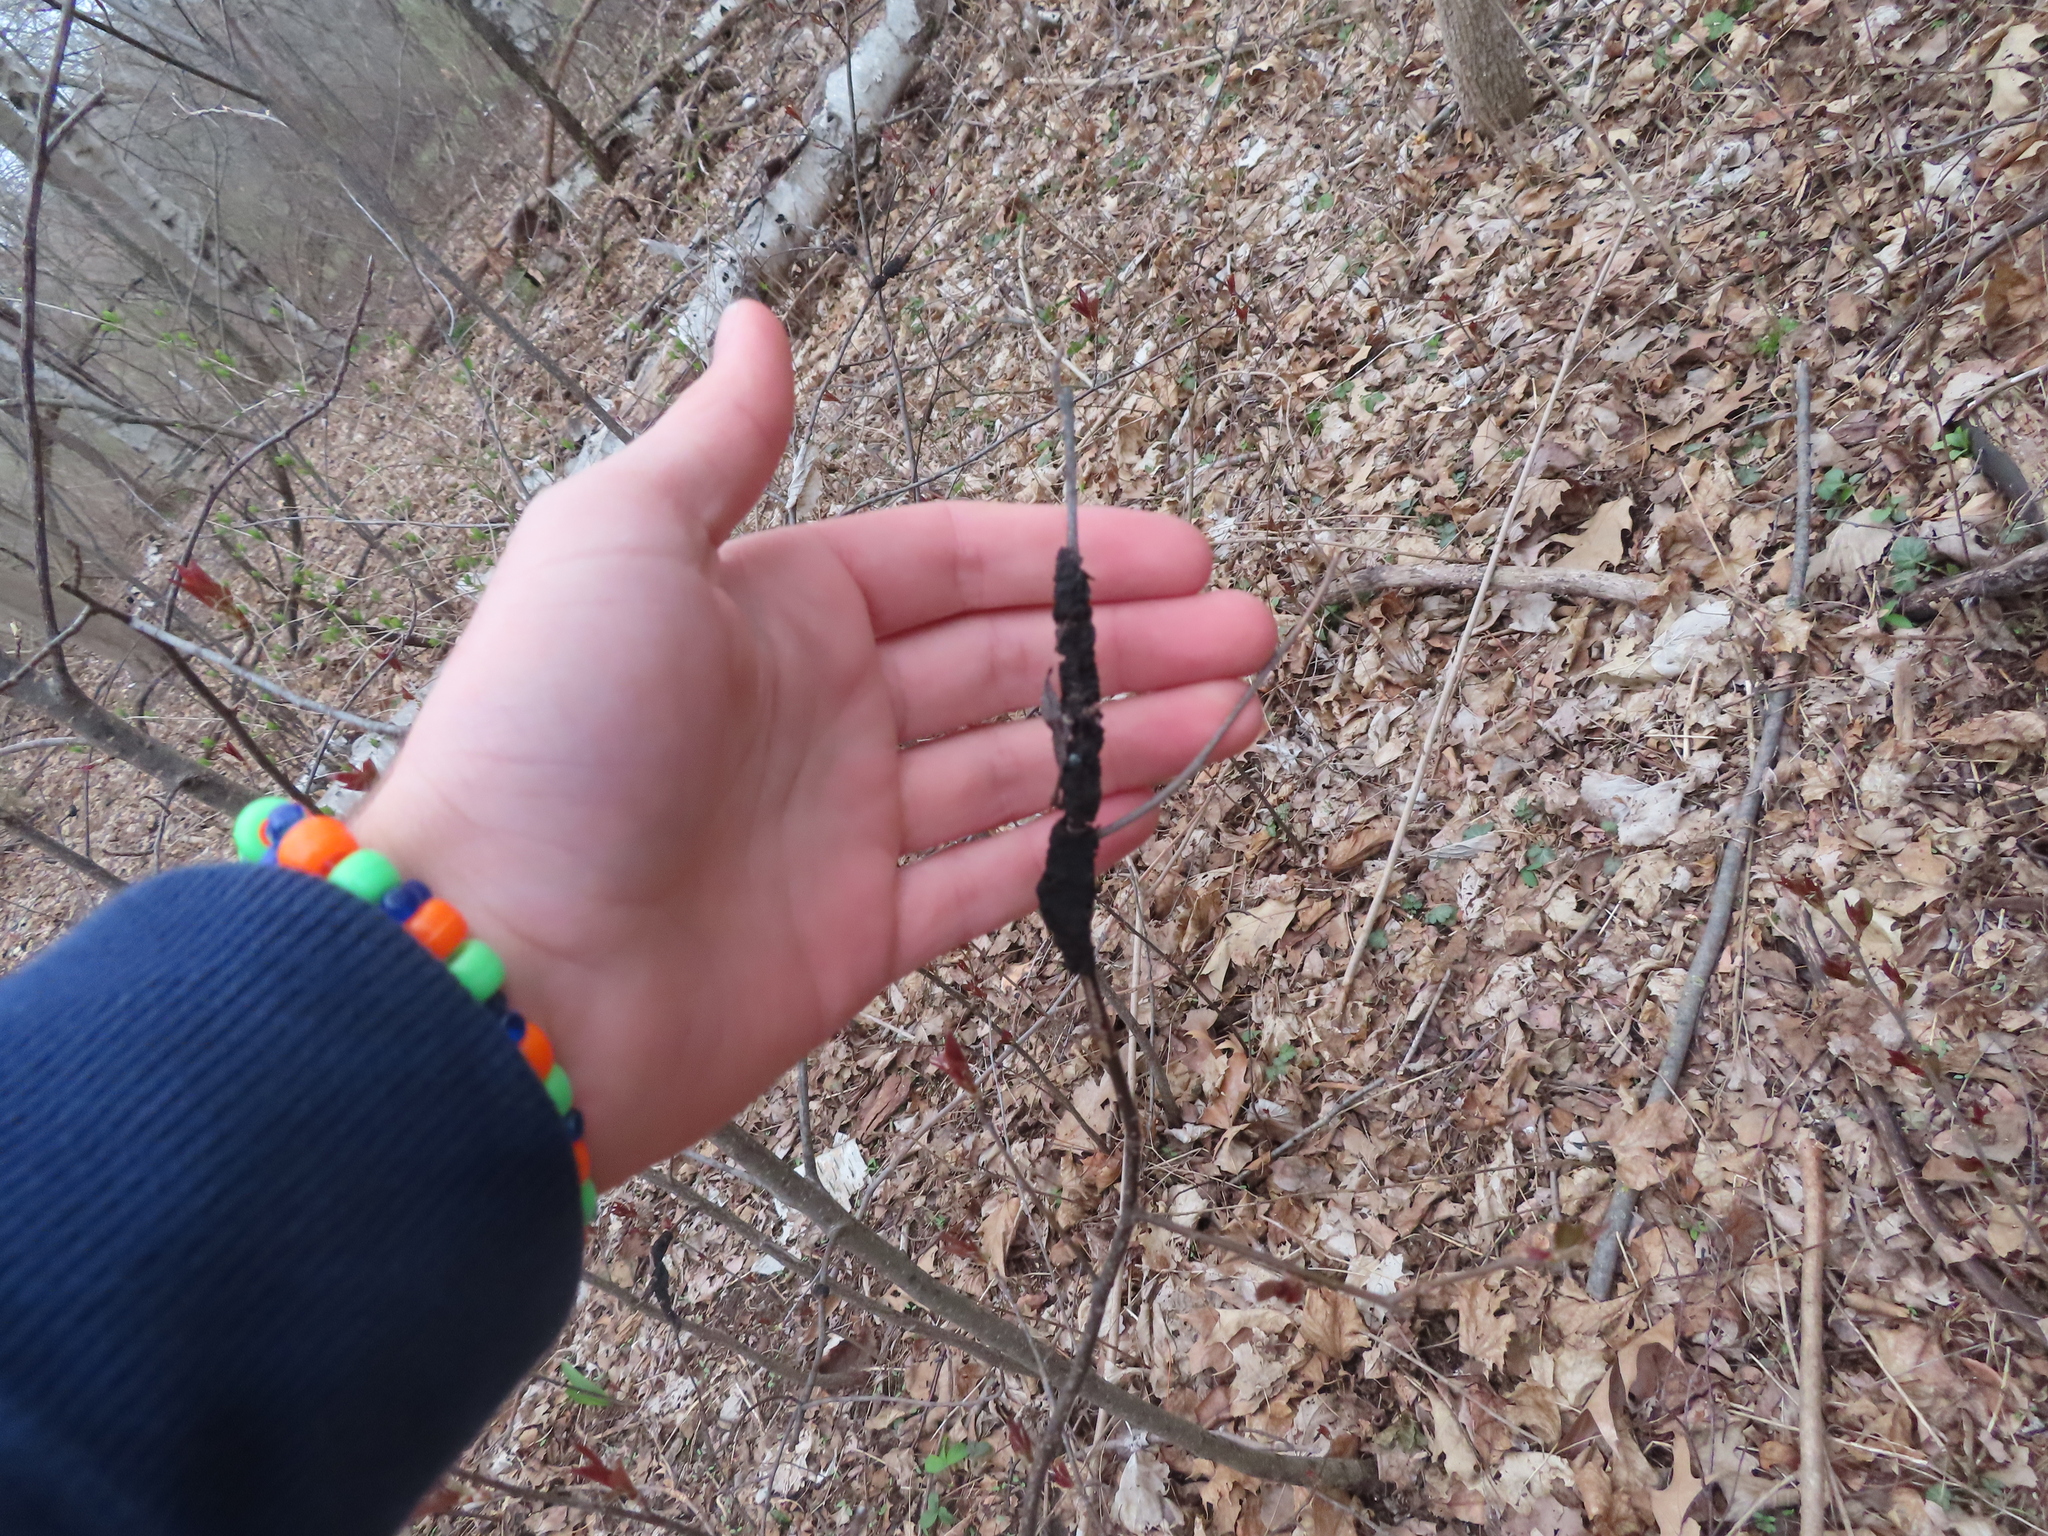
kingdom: Fungi
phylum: Ascomycota
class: Dothideomycetes
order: Venturiales
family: Venturiaceae
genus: Apiosporina
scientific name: Apiosporina morbosa
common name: Black knot
